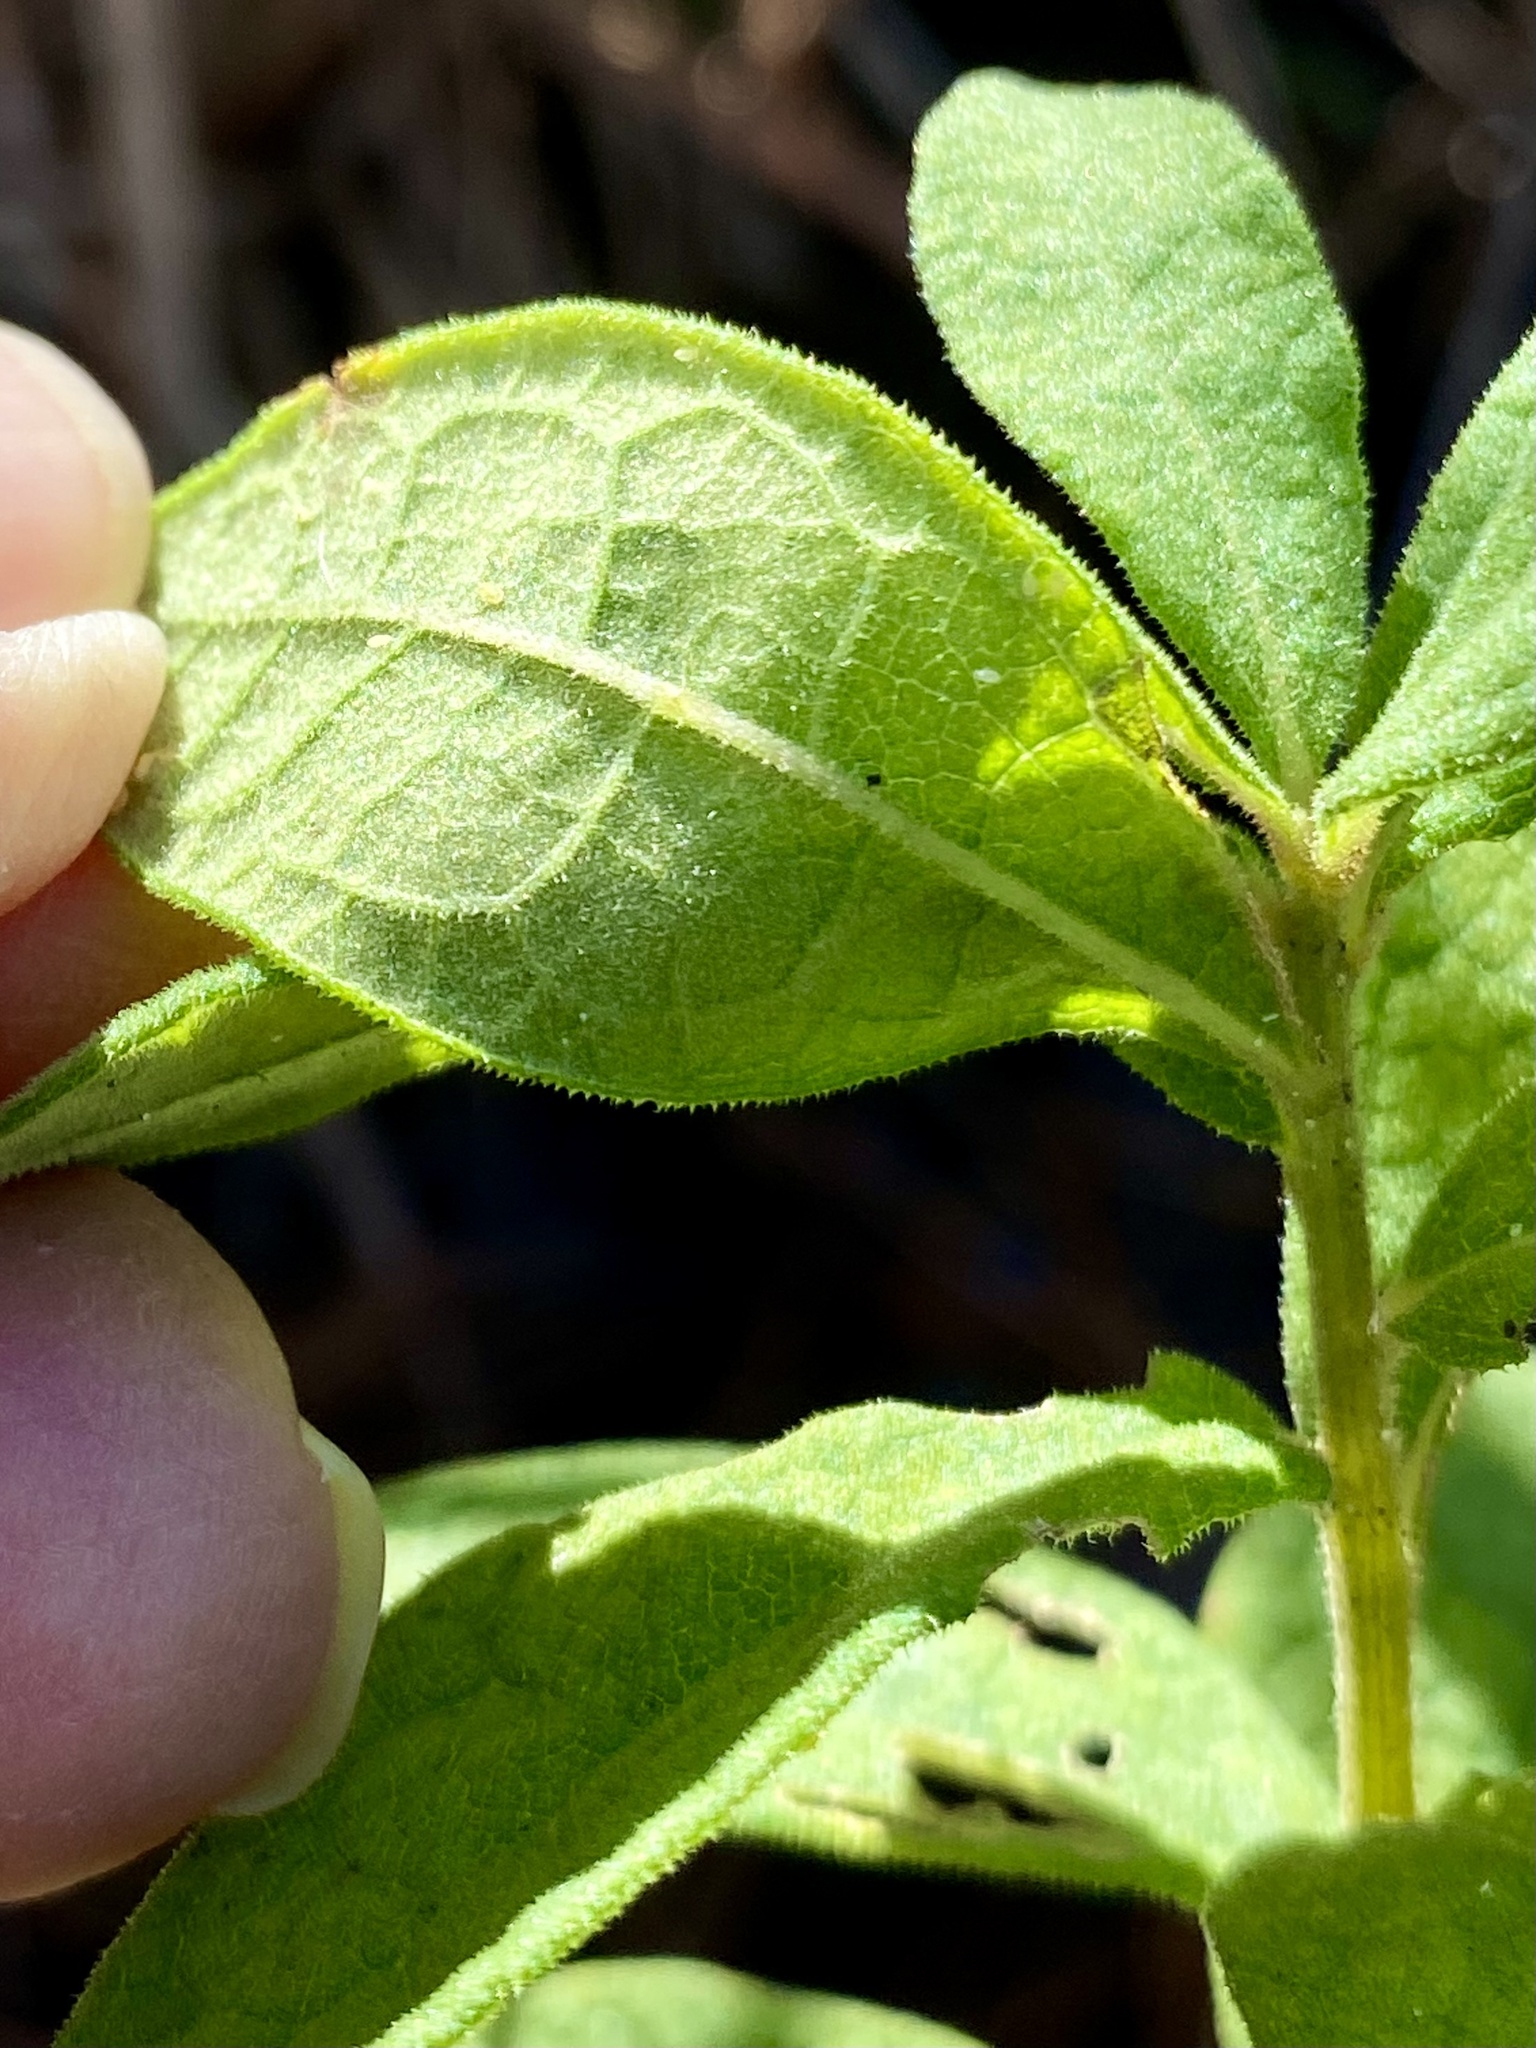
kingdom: Plantae
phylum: Tracheophyta
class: Magnoliopsida
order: Ericales
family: Ericaceae
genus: Gaylussacia
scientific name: Gaylussacia tomentosa
